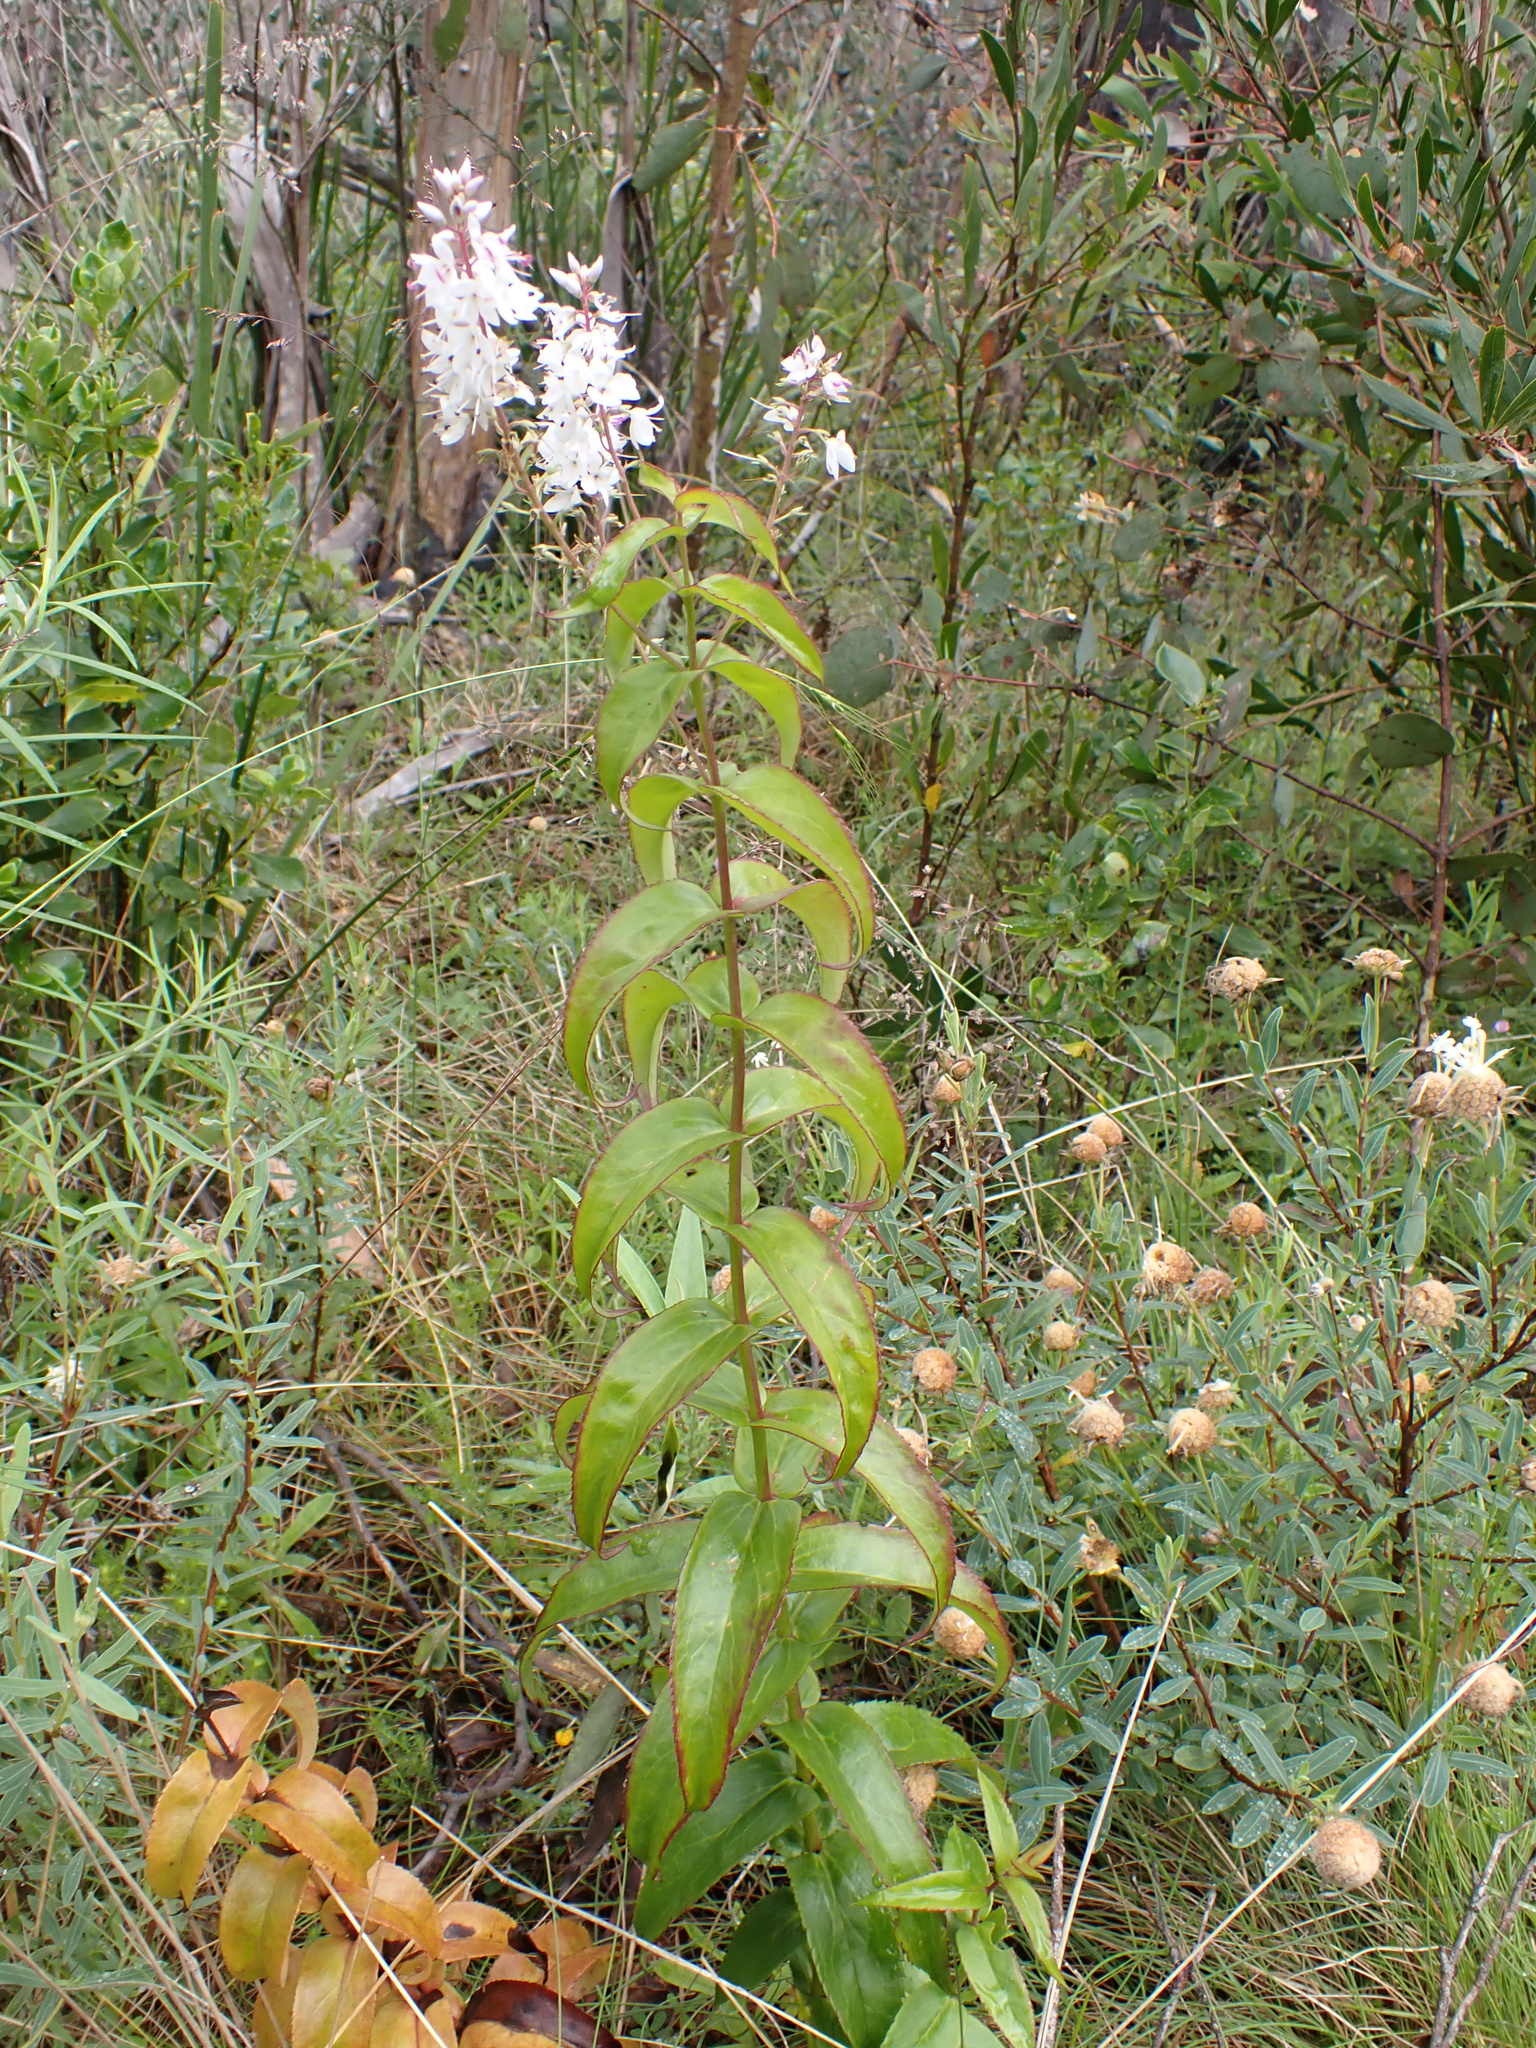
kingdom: Plantae
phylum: Tracheophyta
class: Magnoliopsida
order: Lamiales
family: Plantaginaceae
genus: Veronica
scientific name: Veronica derwentiana
